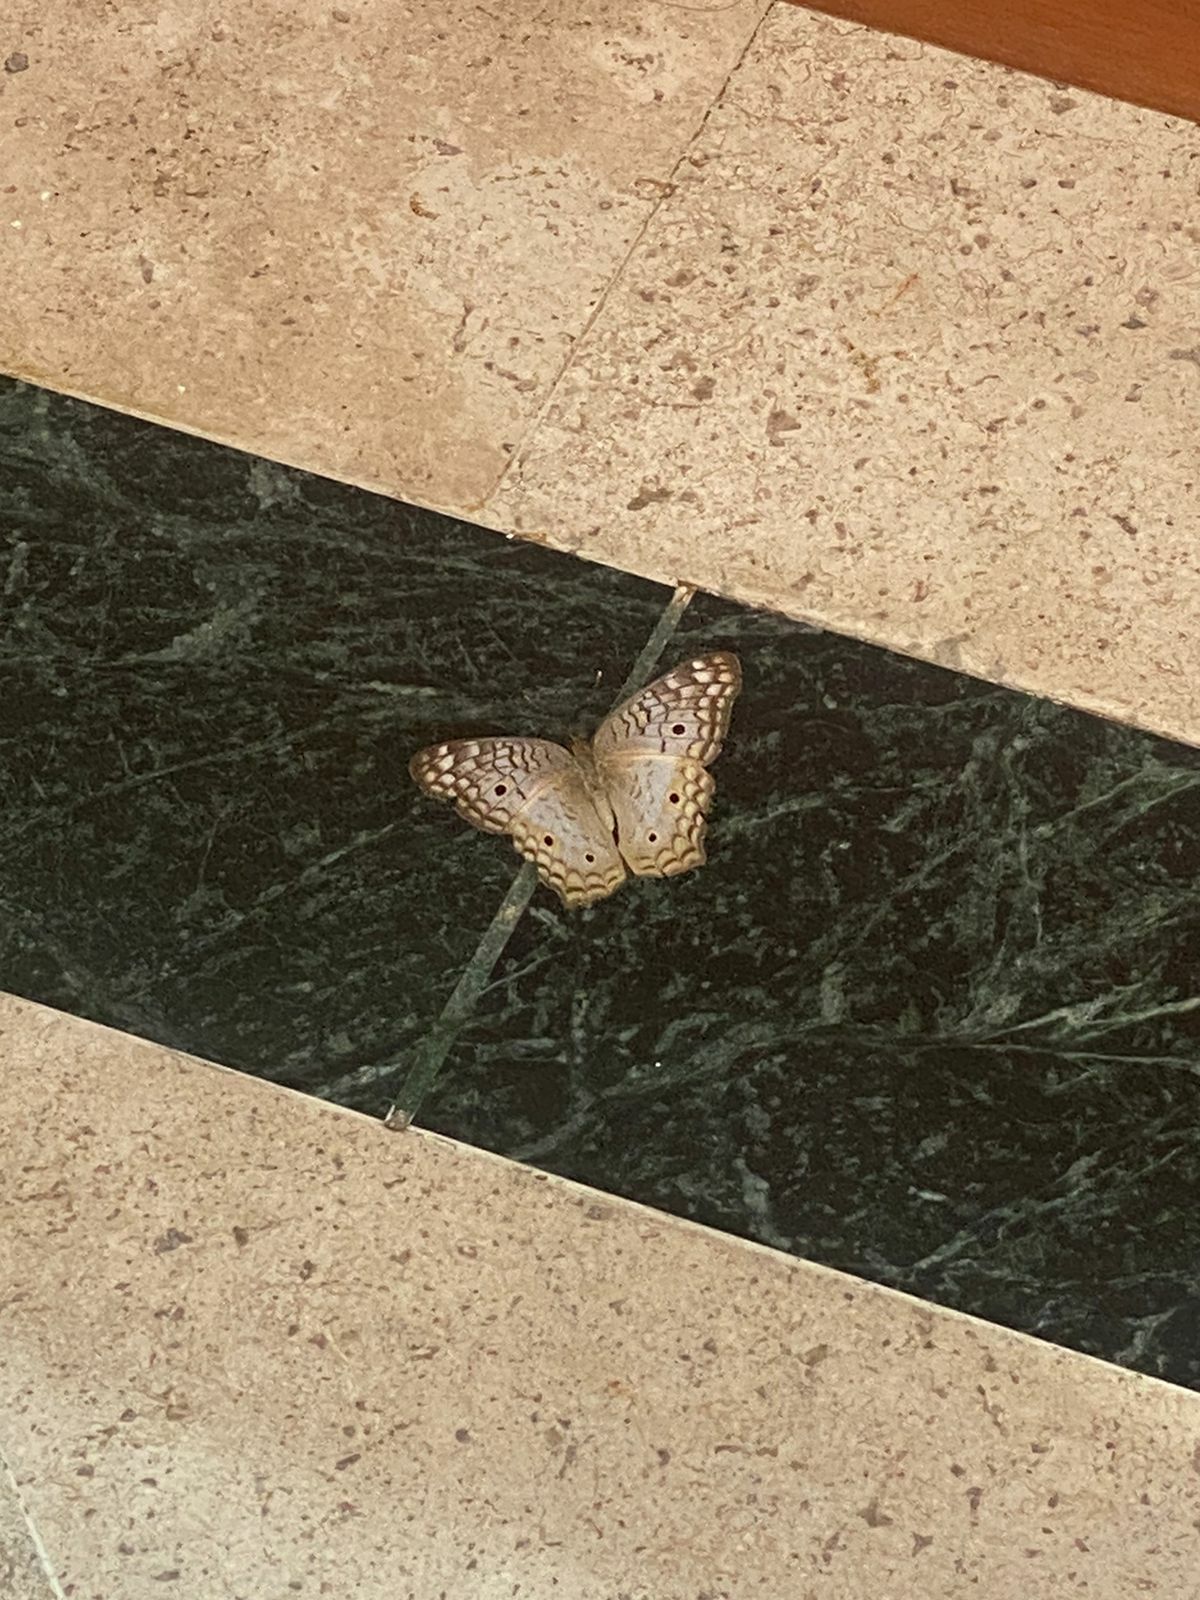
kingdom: Animalia
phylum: Arthropoda
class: Insecta
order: Lepidoptera
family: Nymphalidae
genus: Anartia
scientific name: Anartia jatrophae
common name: White peacock
